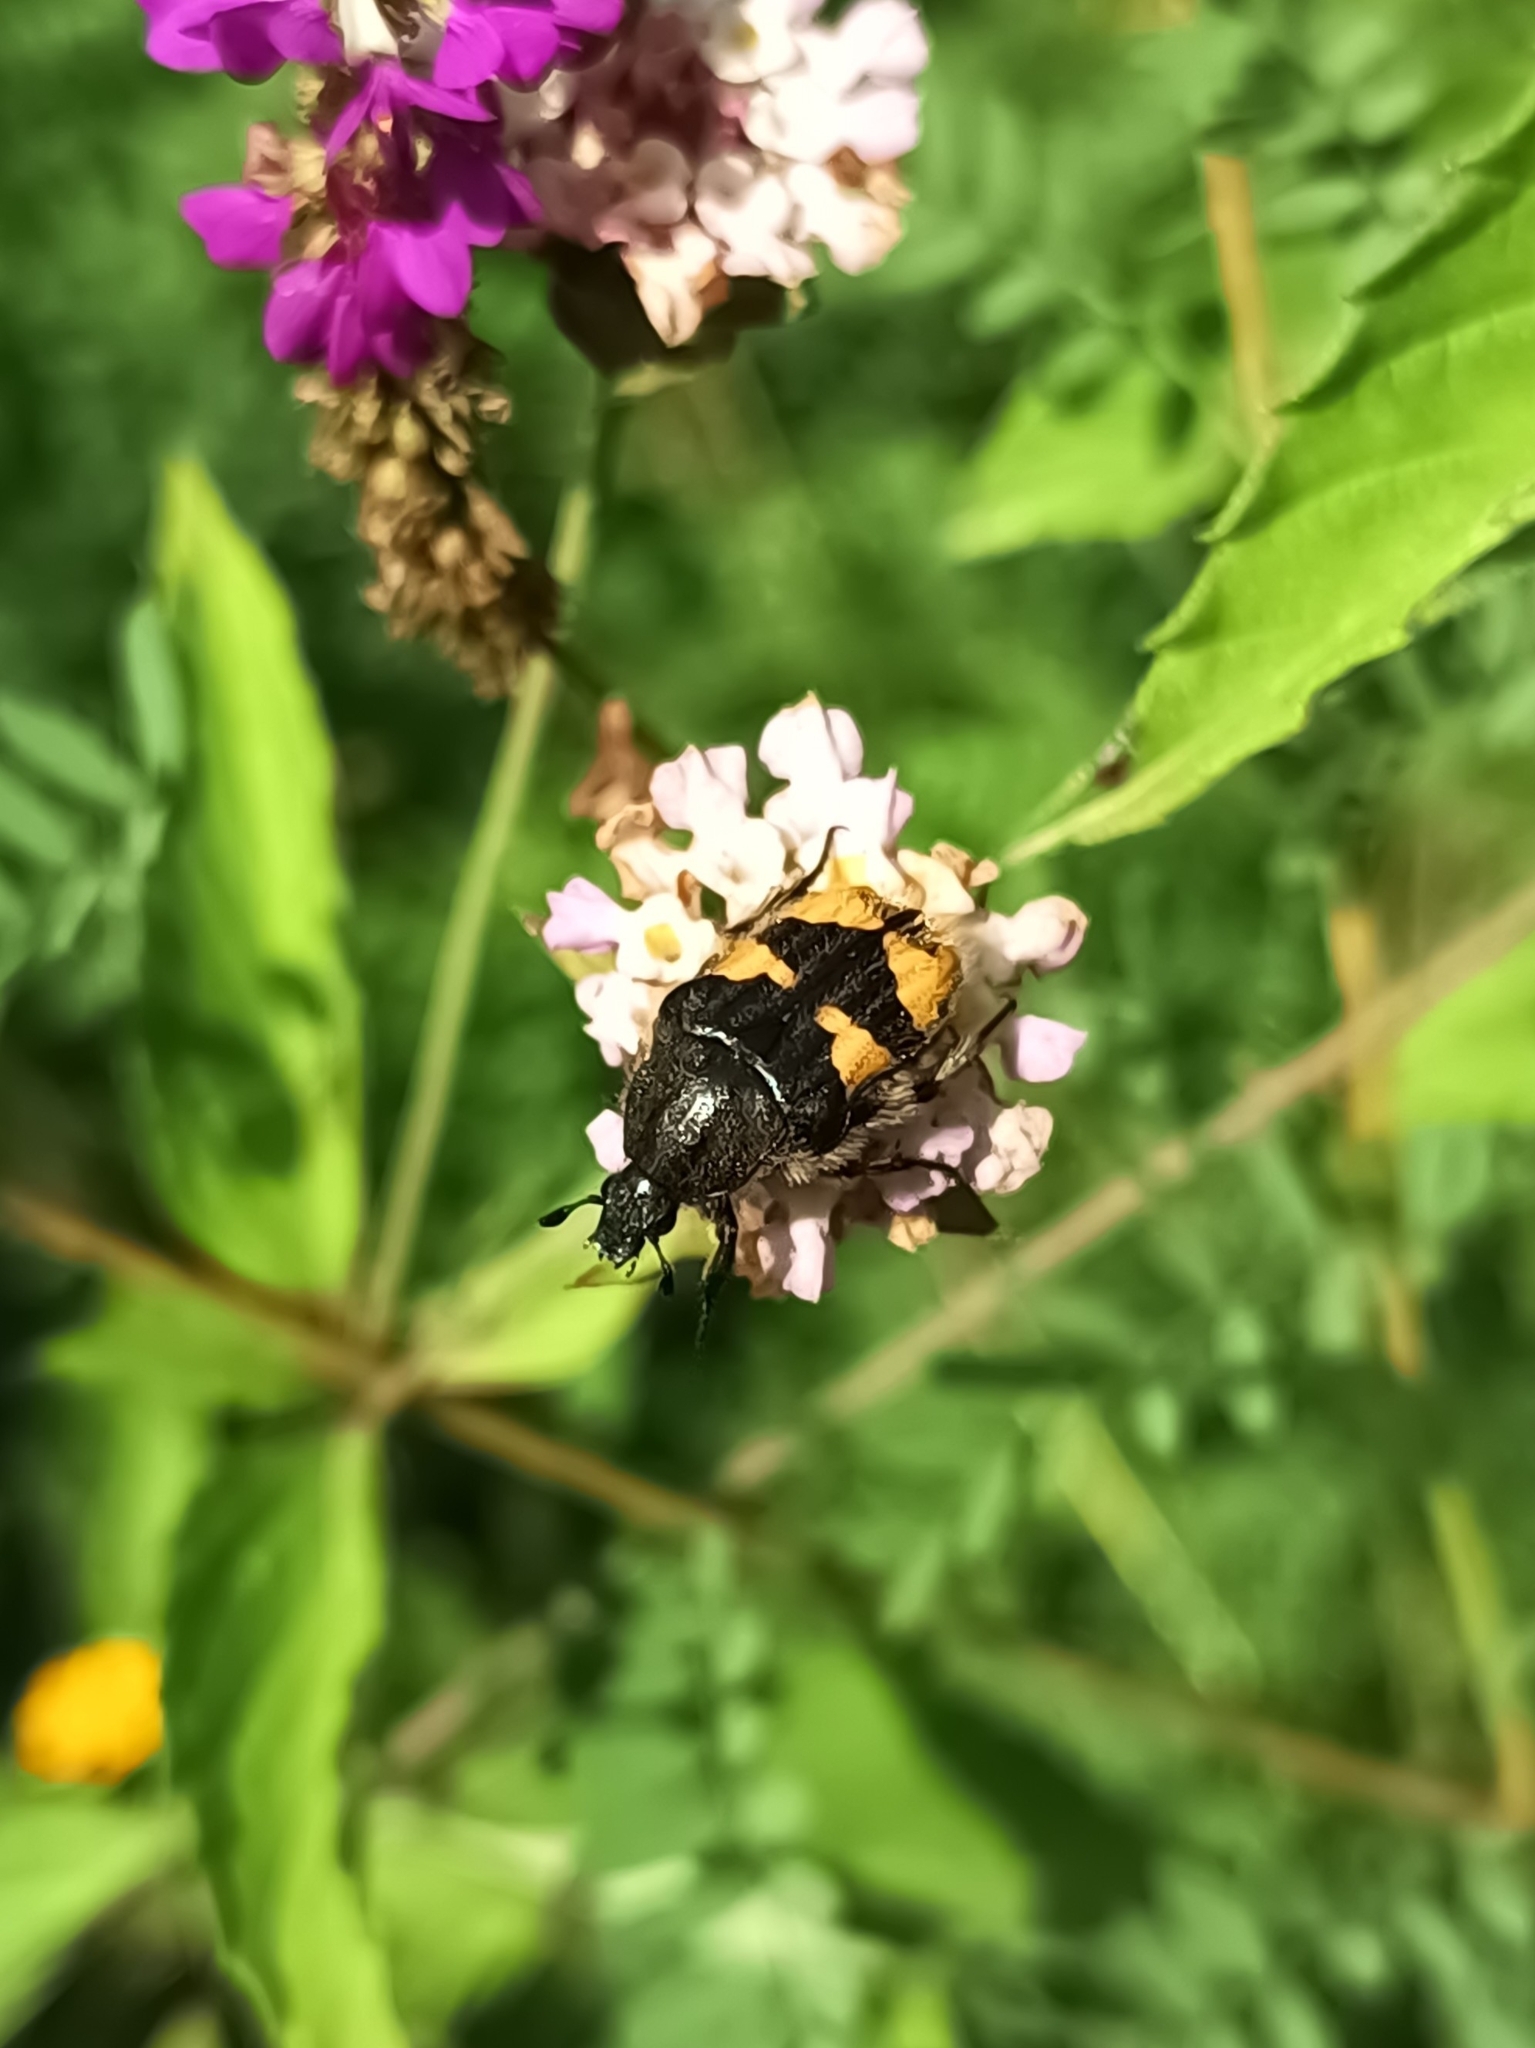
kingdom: Animalia
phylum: Arthropoda
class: Insecta
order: Coleoptera
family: Scarabaeidae
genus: Euphoria
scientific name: Euphoria basalis
